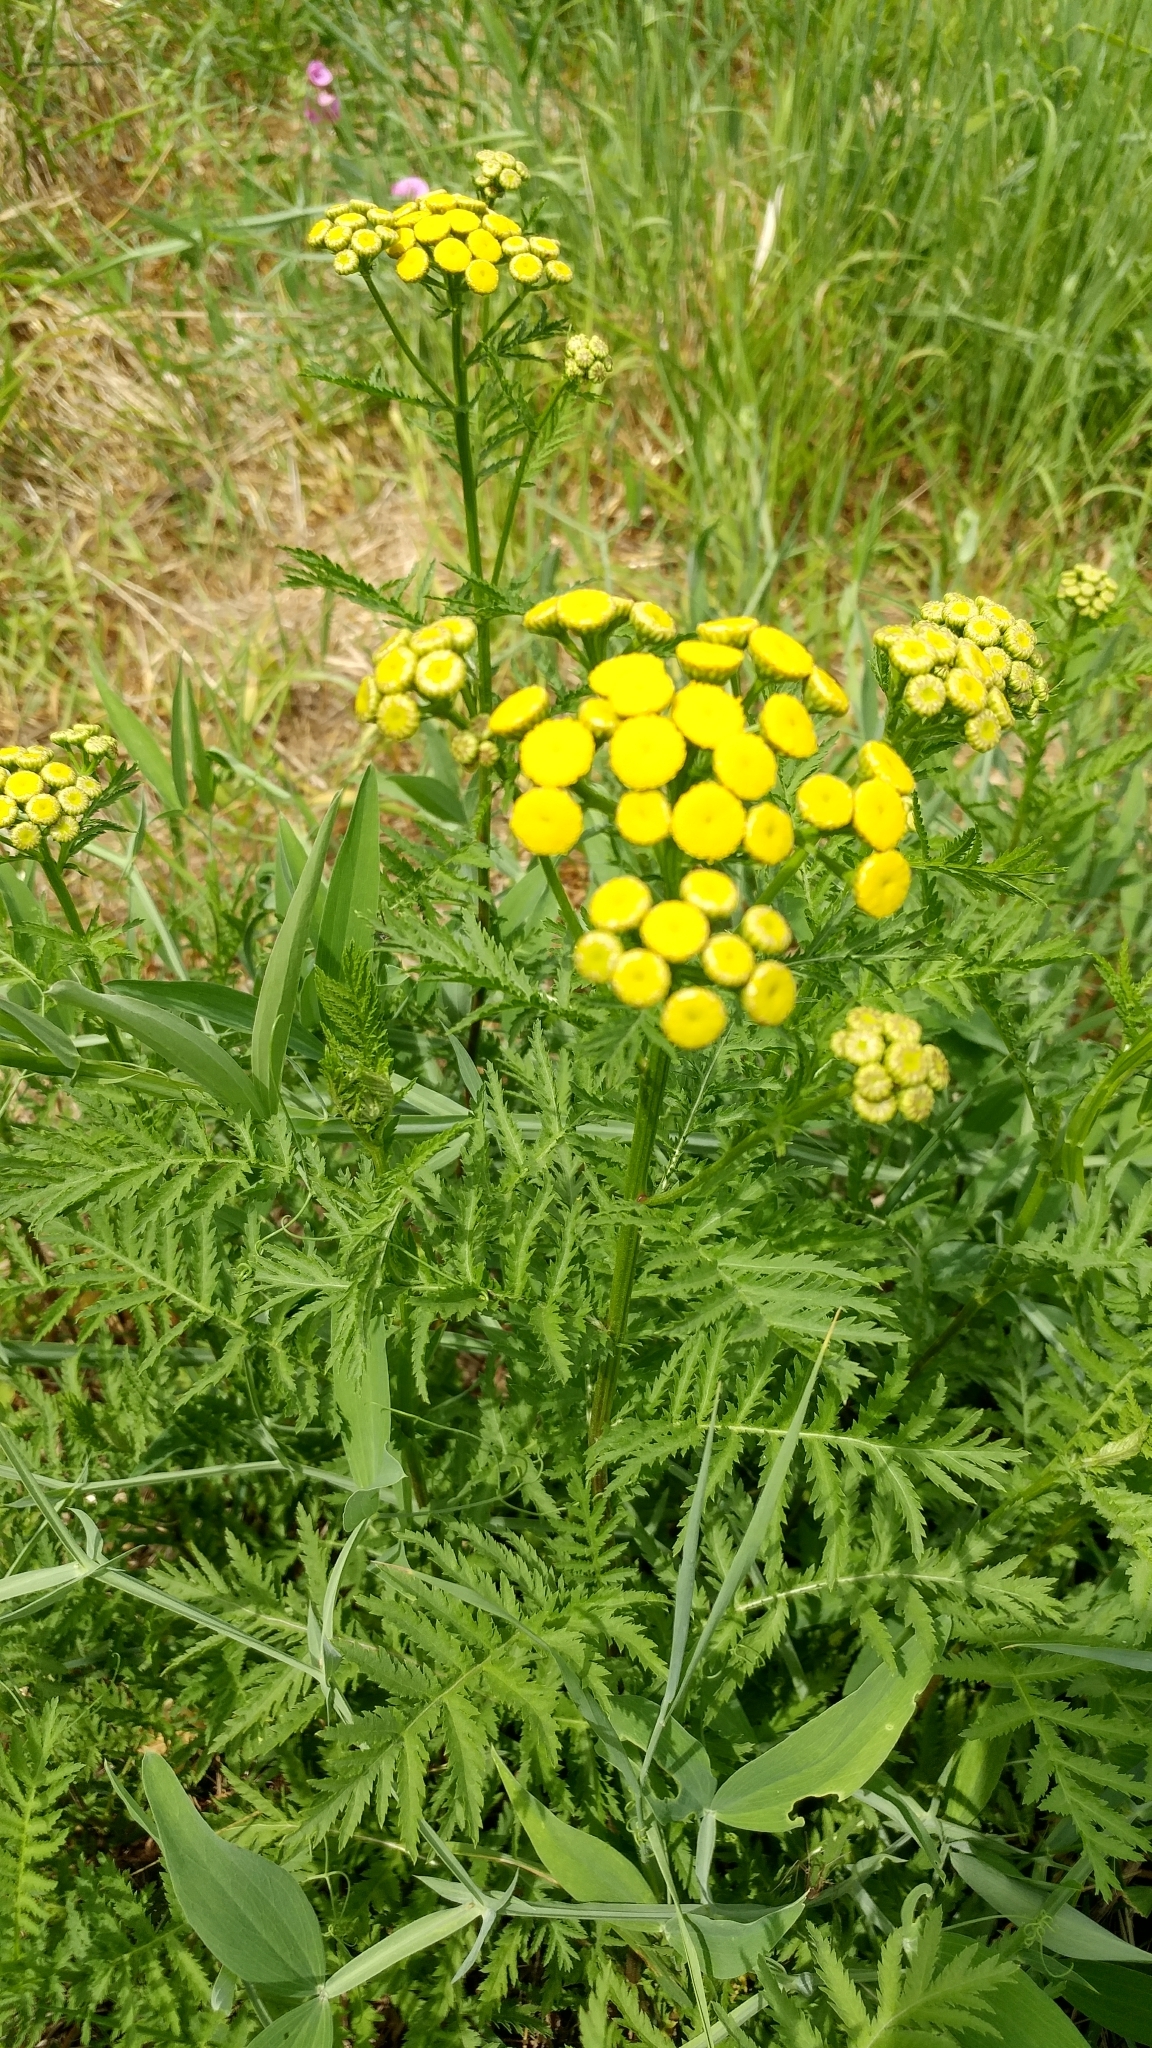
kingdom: Plantae
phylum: Tracheophyta
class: Magnoliopsida
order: Asterales
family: Asteraceae
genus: Tanacetum
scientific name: Tanacetum vulgare
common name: Common tansy
